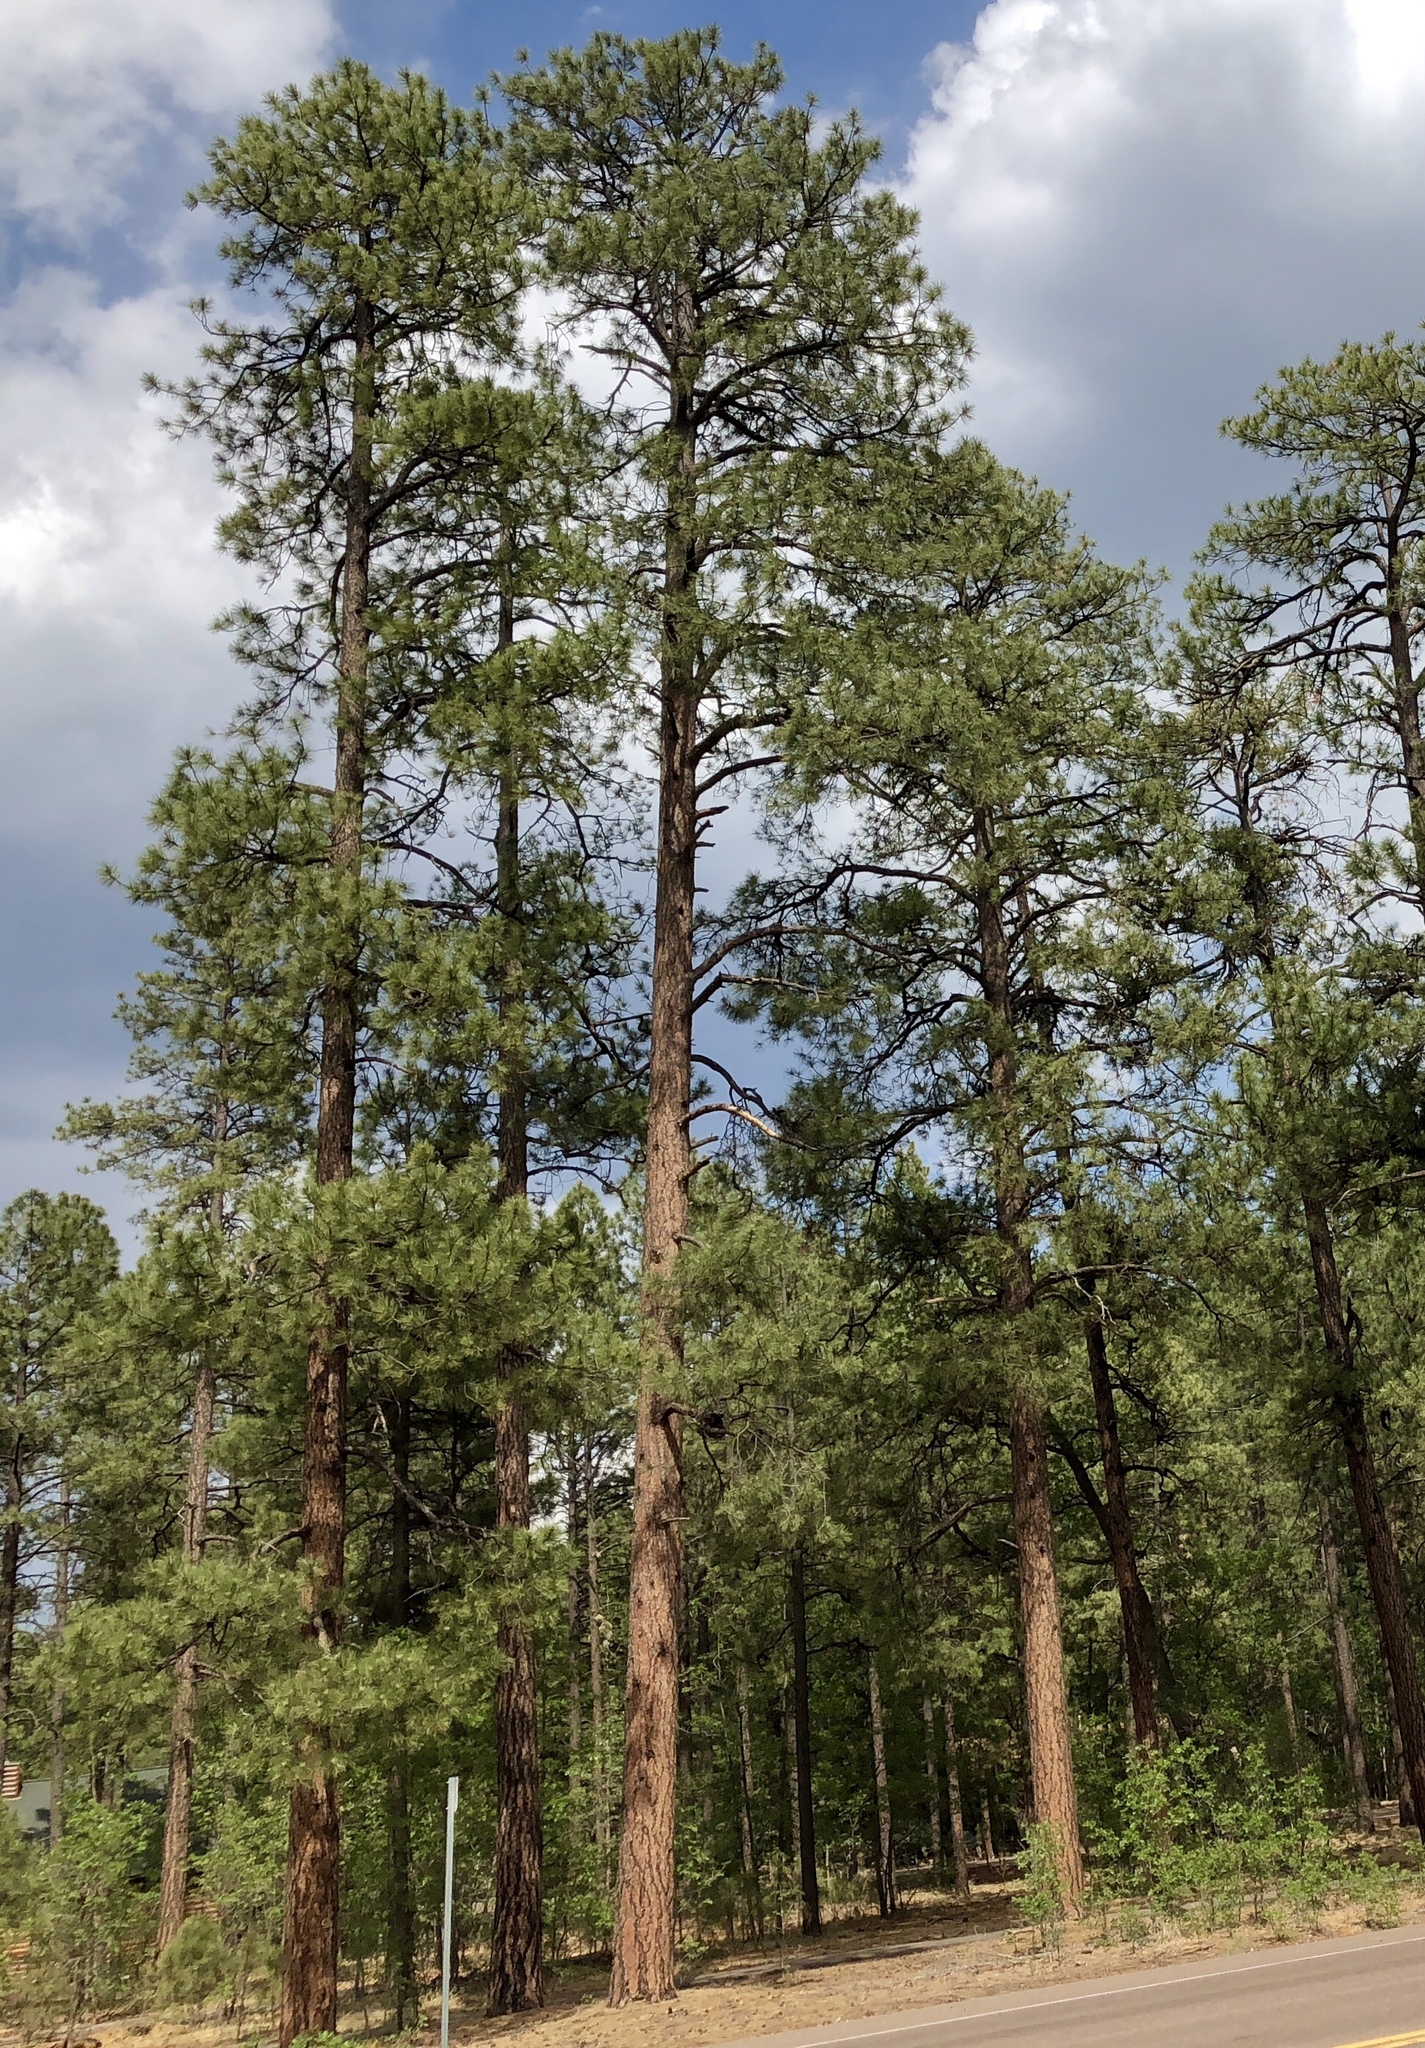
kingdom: Plantae
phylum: Tracheophyta
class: Pinopsida
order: Pinales
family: Pinaceae
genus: Pinus
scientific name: Pinus ponderosa
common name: Western yellow-pine
